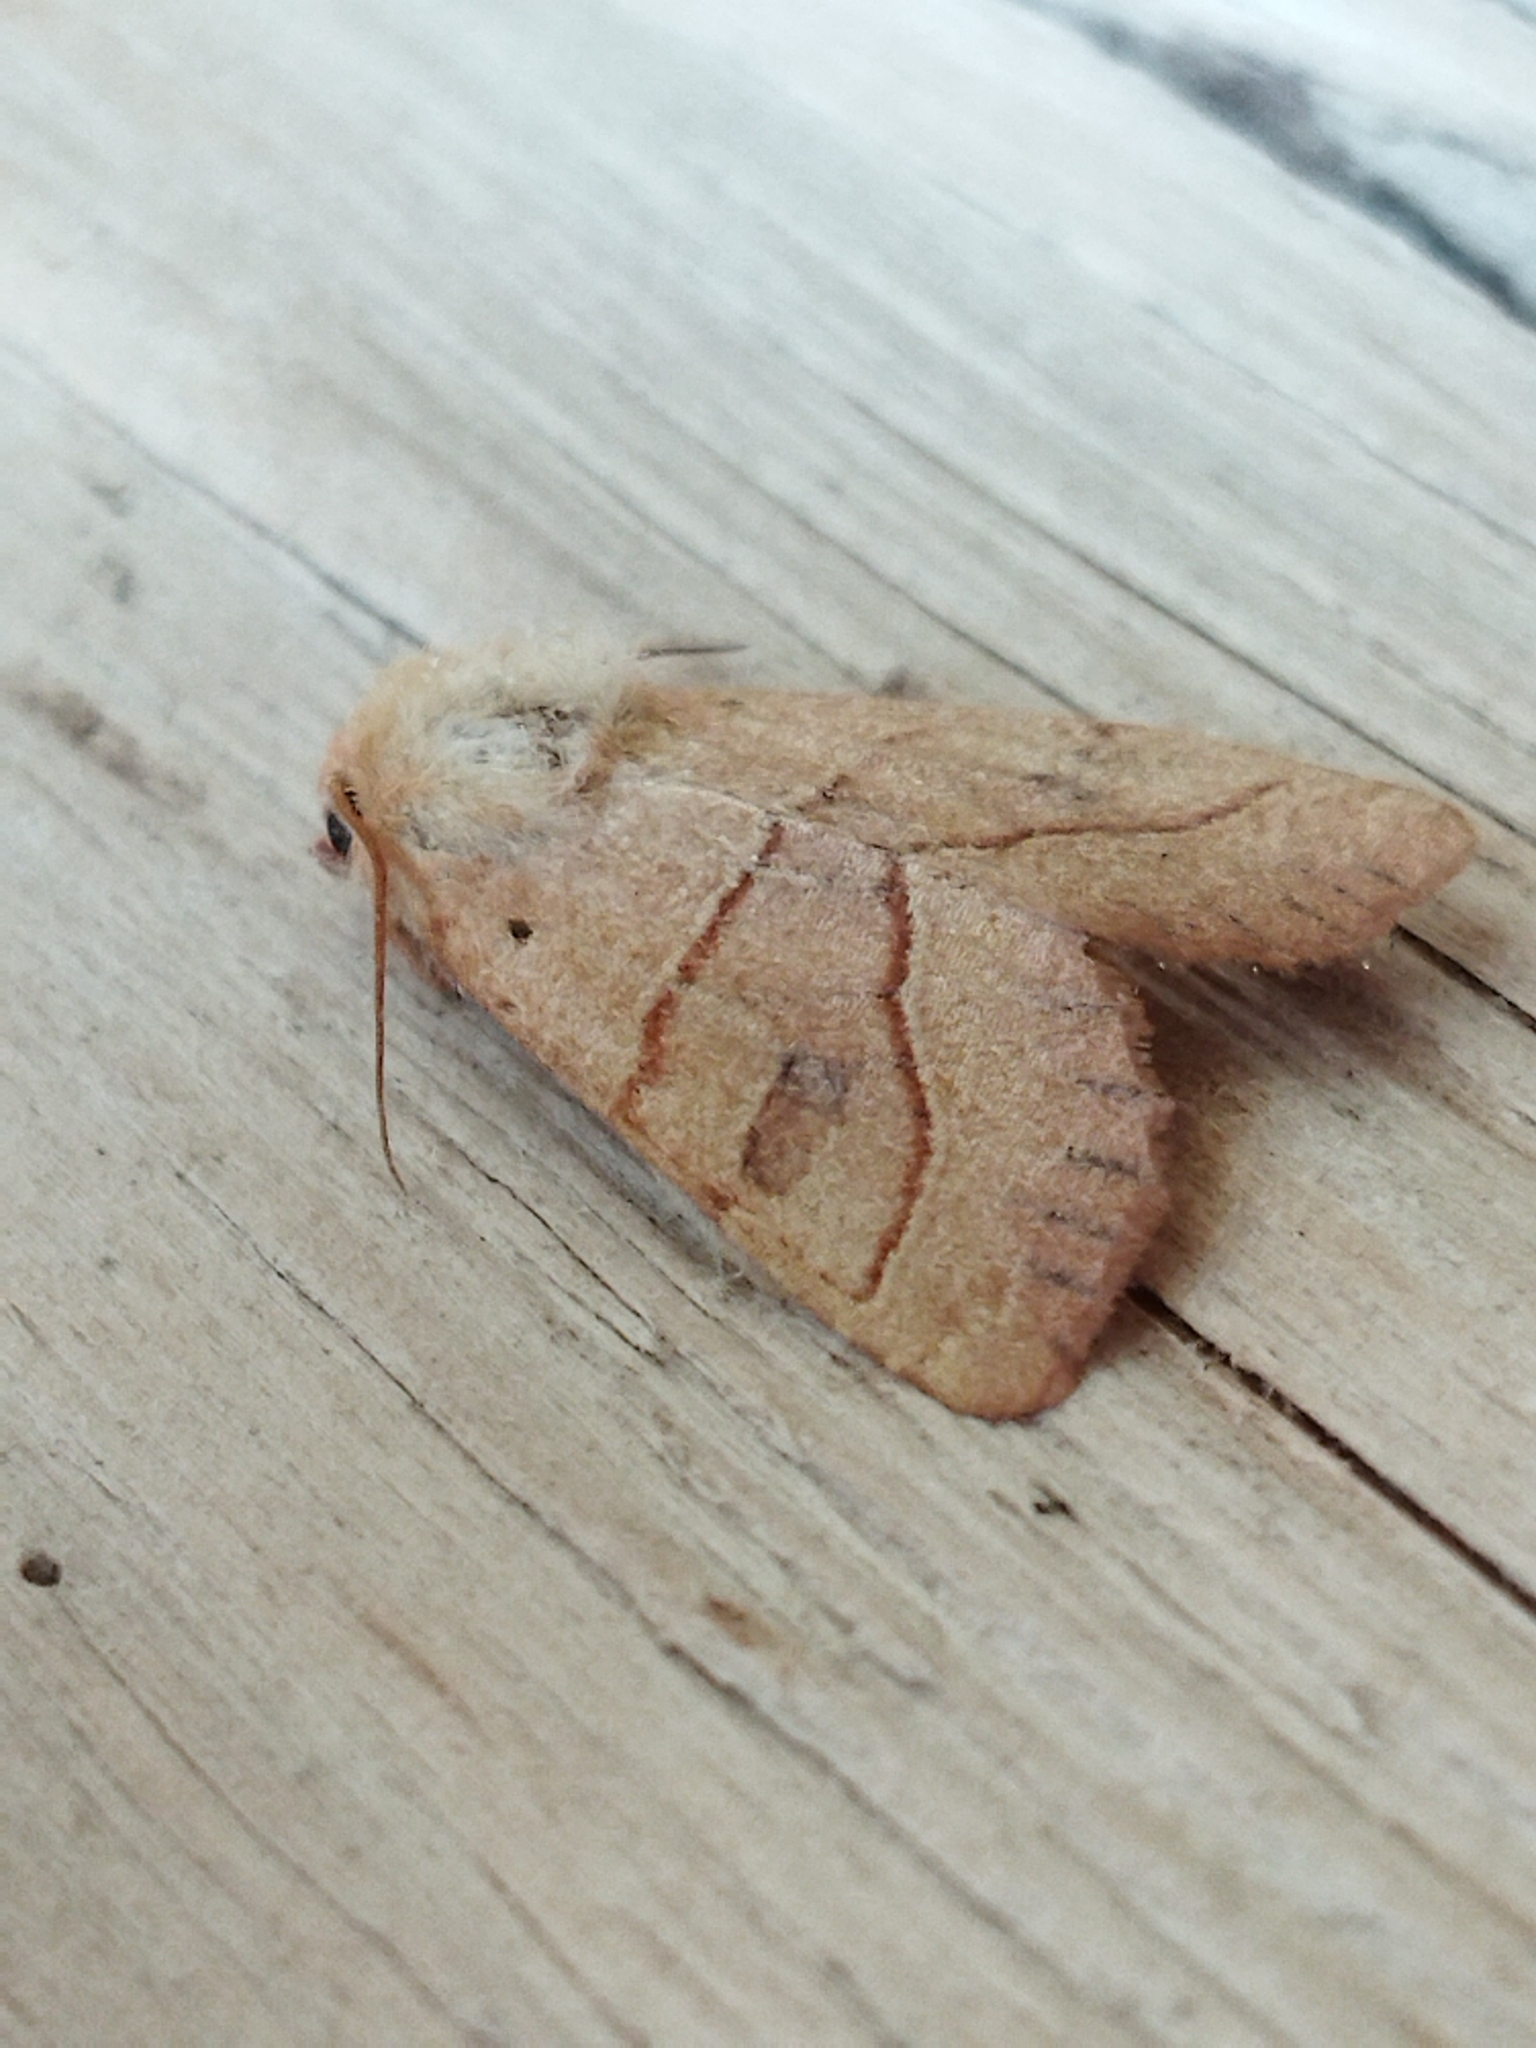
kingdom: Animalia
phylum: Arthropoda
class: Insecta
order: Lepidoptera
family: Noctuidae
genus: Atethmia
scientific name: Atethmia centrago
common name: Centre-barred sallow
